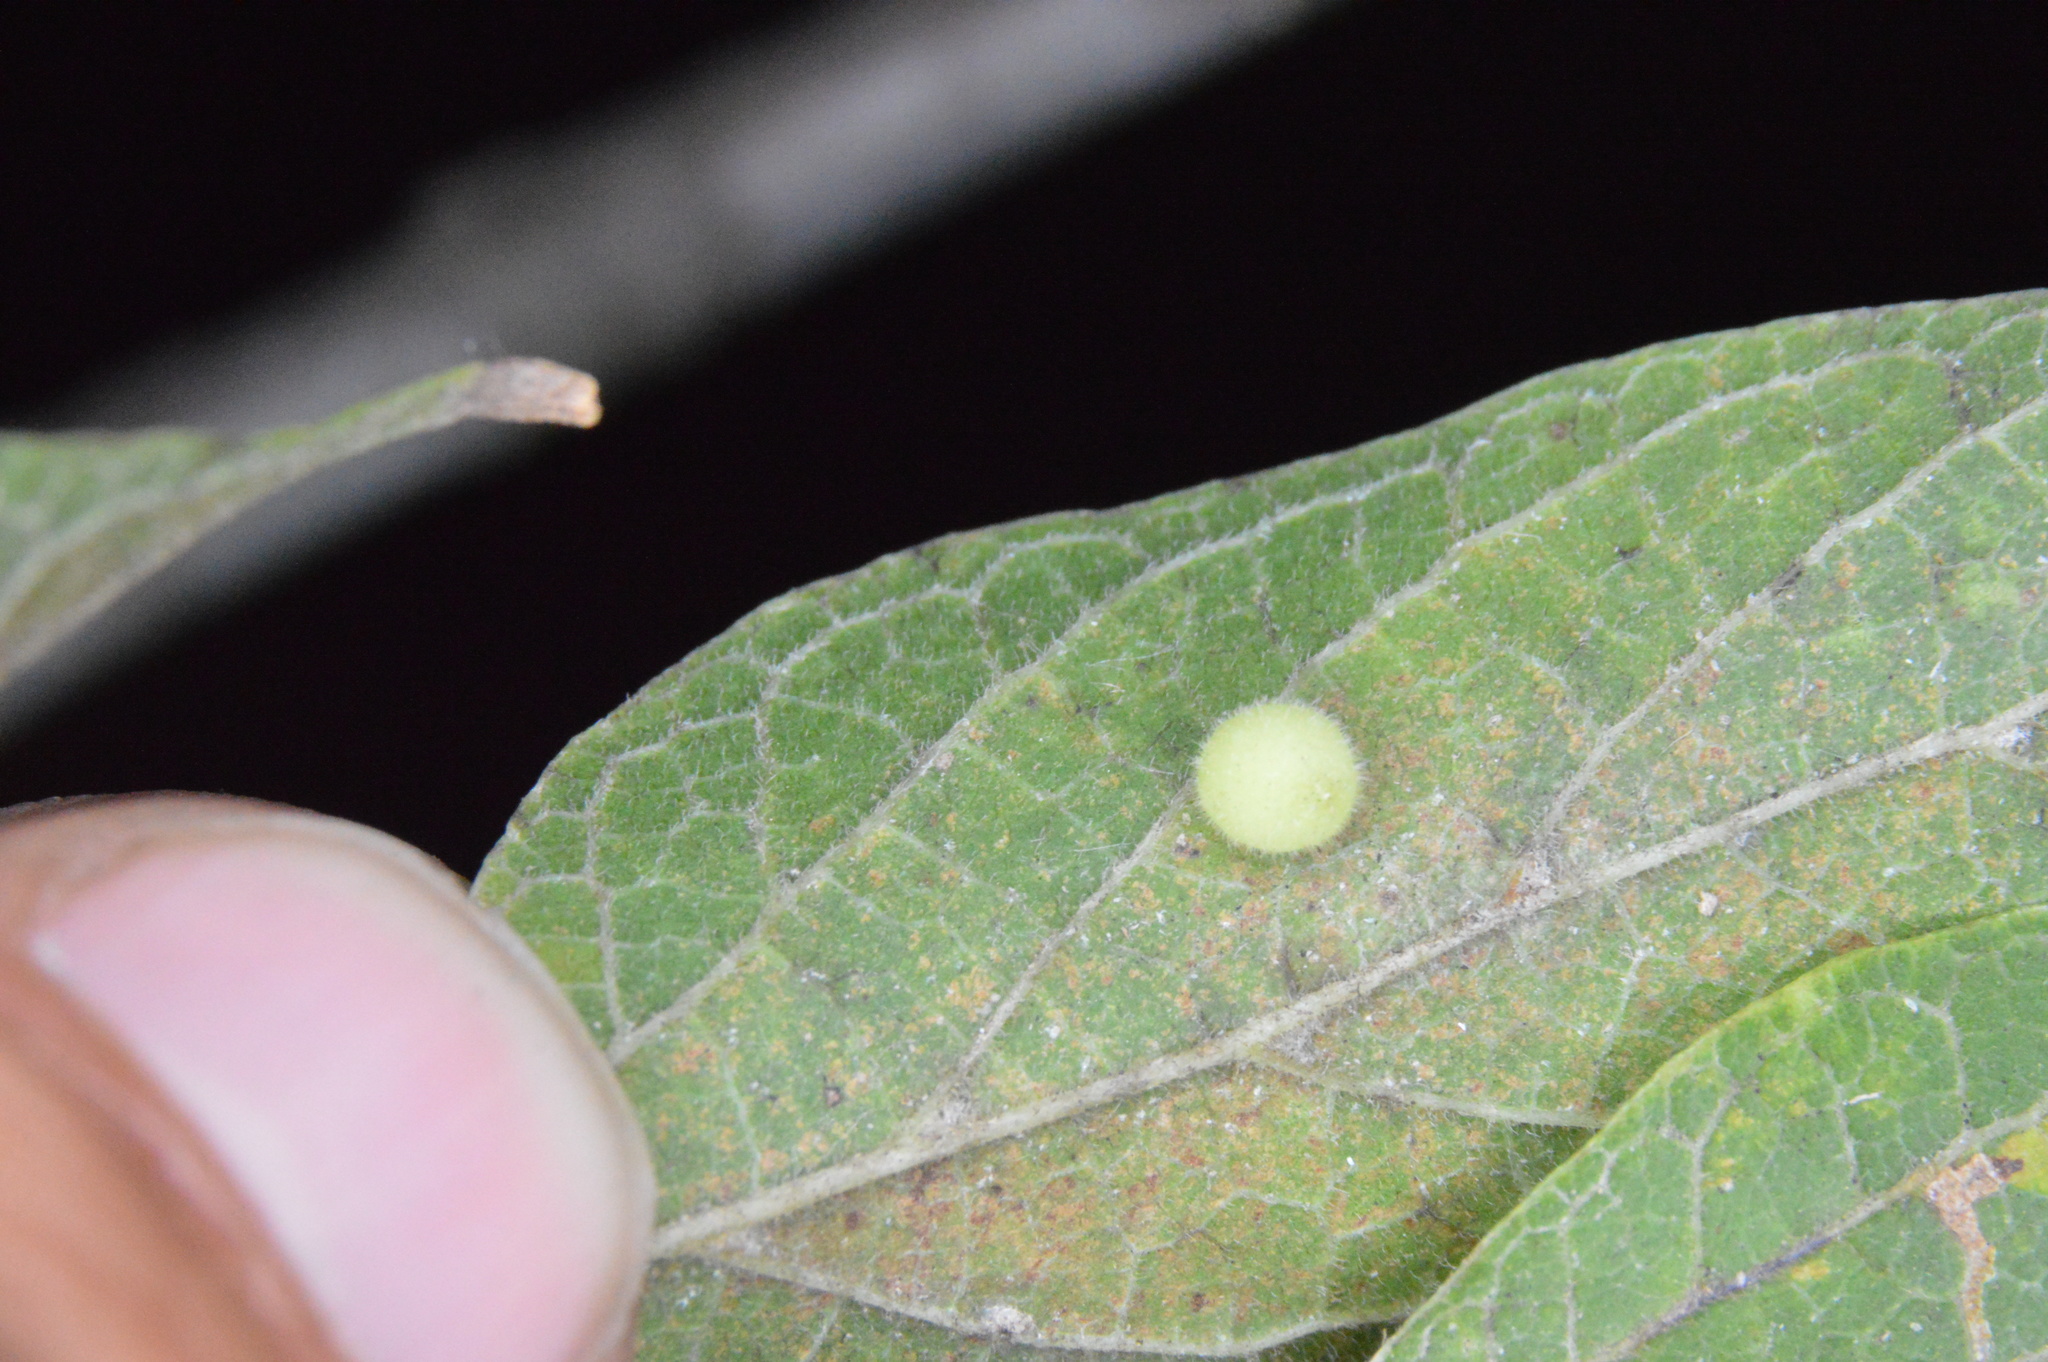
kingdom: Animalia
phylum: Arthropoda
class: Insecta
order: Diptera
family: Cecidomyiidae
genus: Celticecis
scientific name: Celticecis globosa
